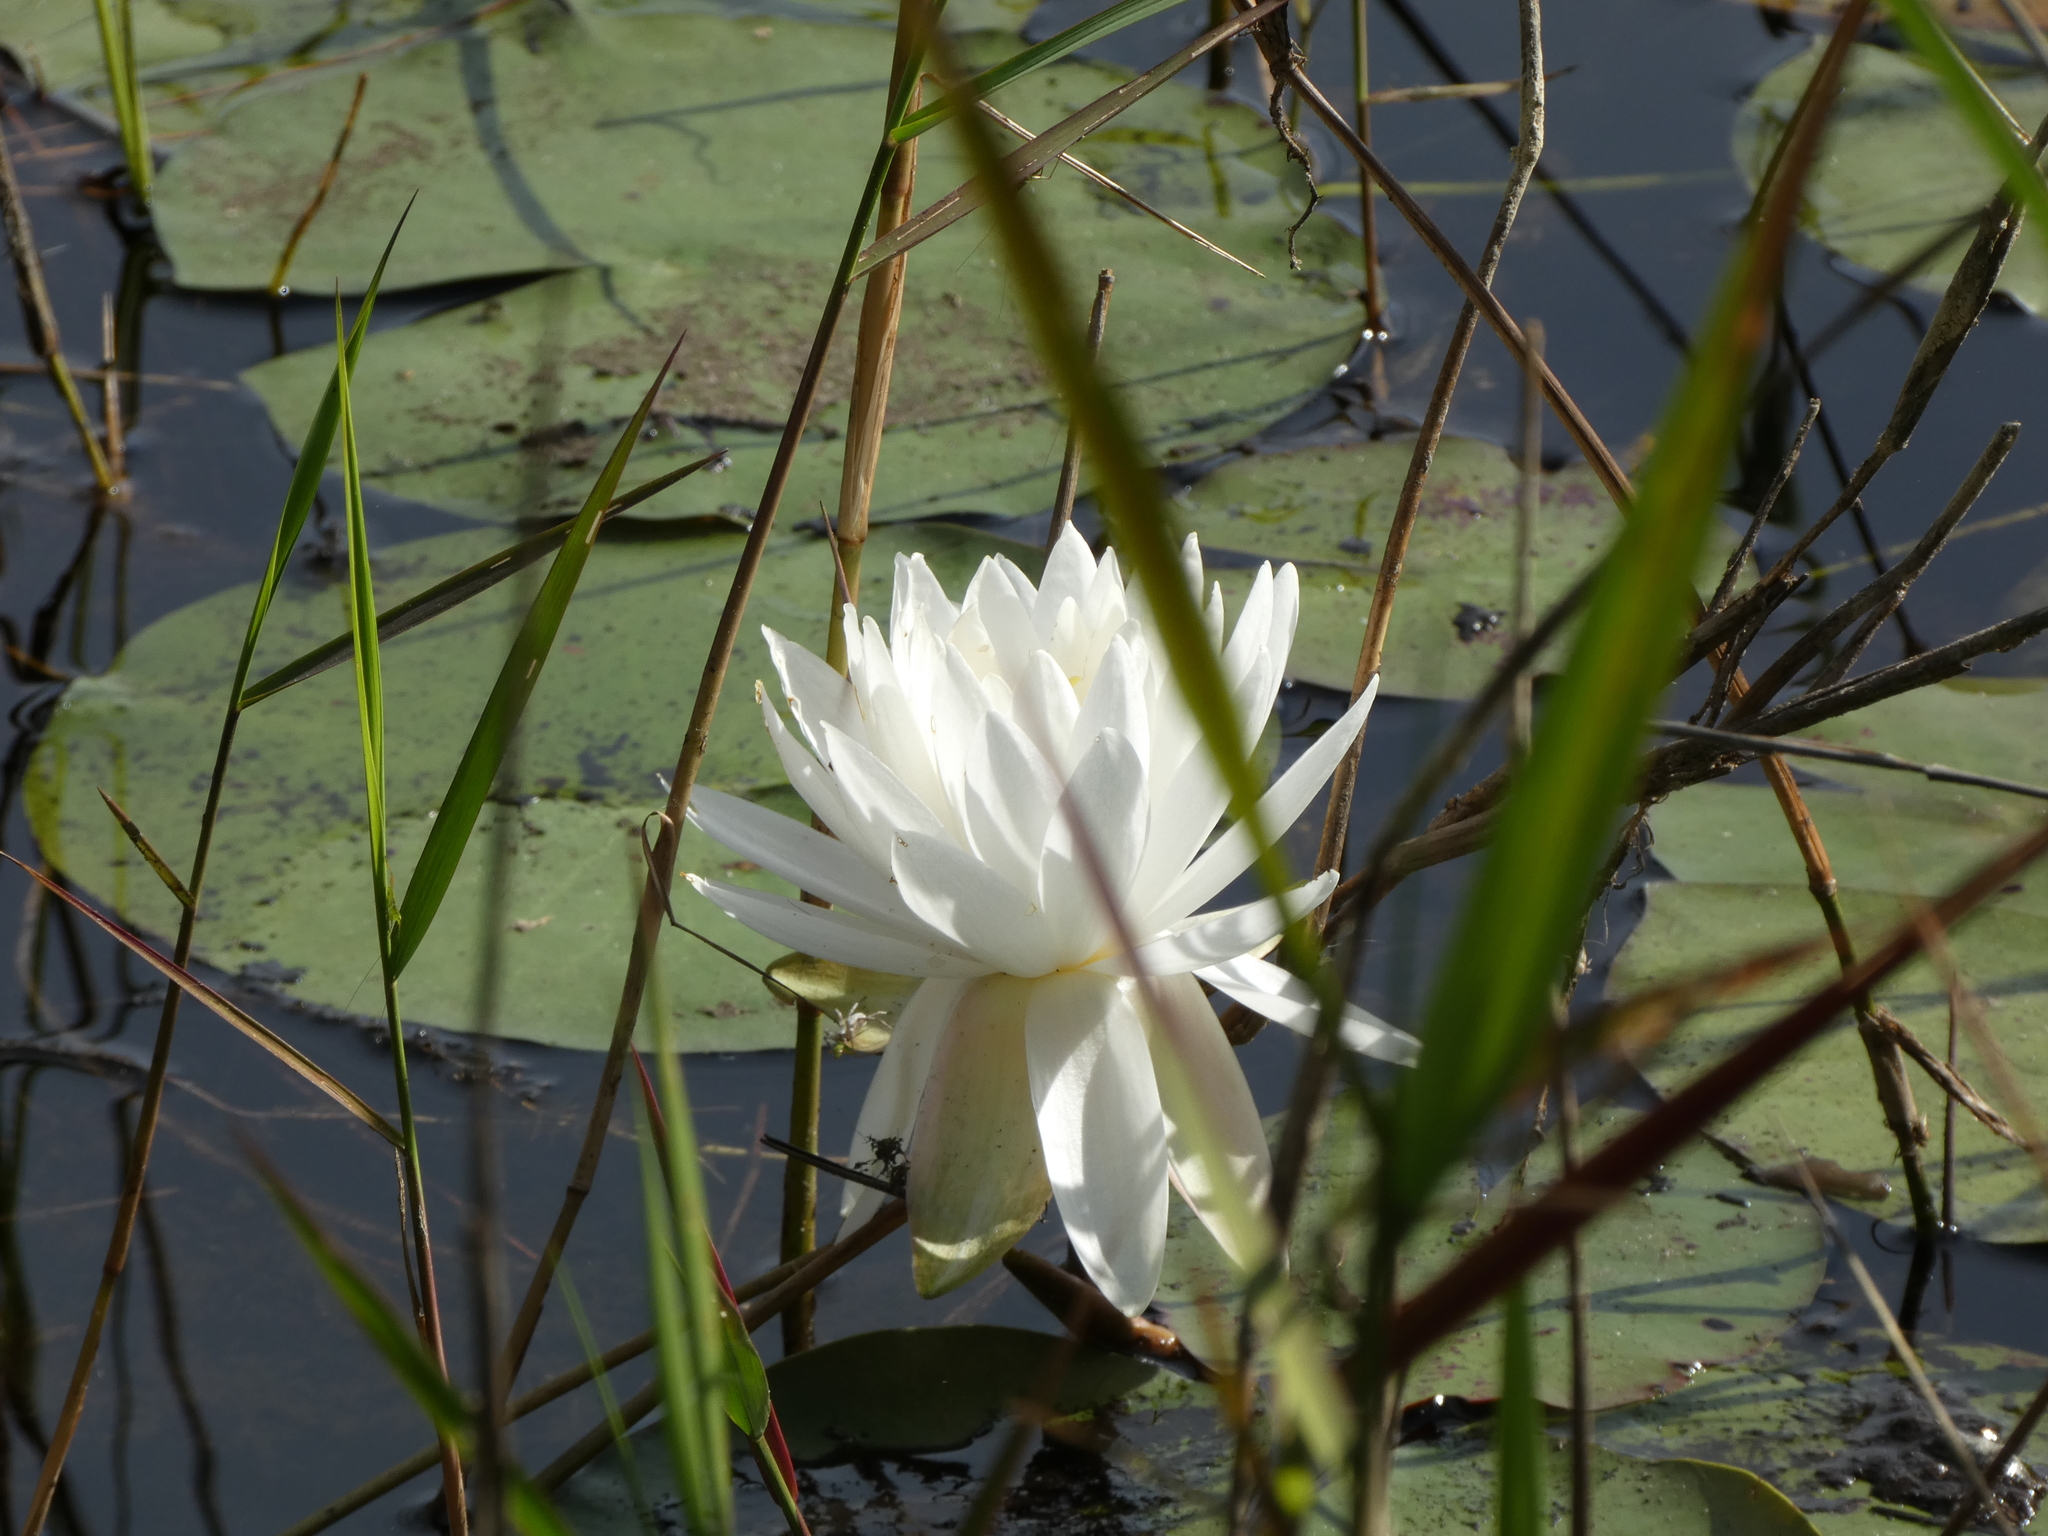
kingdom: Plantae
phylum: Tracheophyta
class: Magnoliopsida
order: Nymphaeales
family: Nymphaeaceae
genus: Nymphaea
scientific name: Nymphaea odorata
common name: Fragrant water-lily
